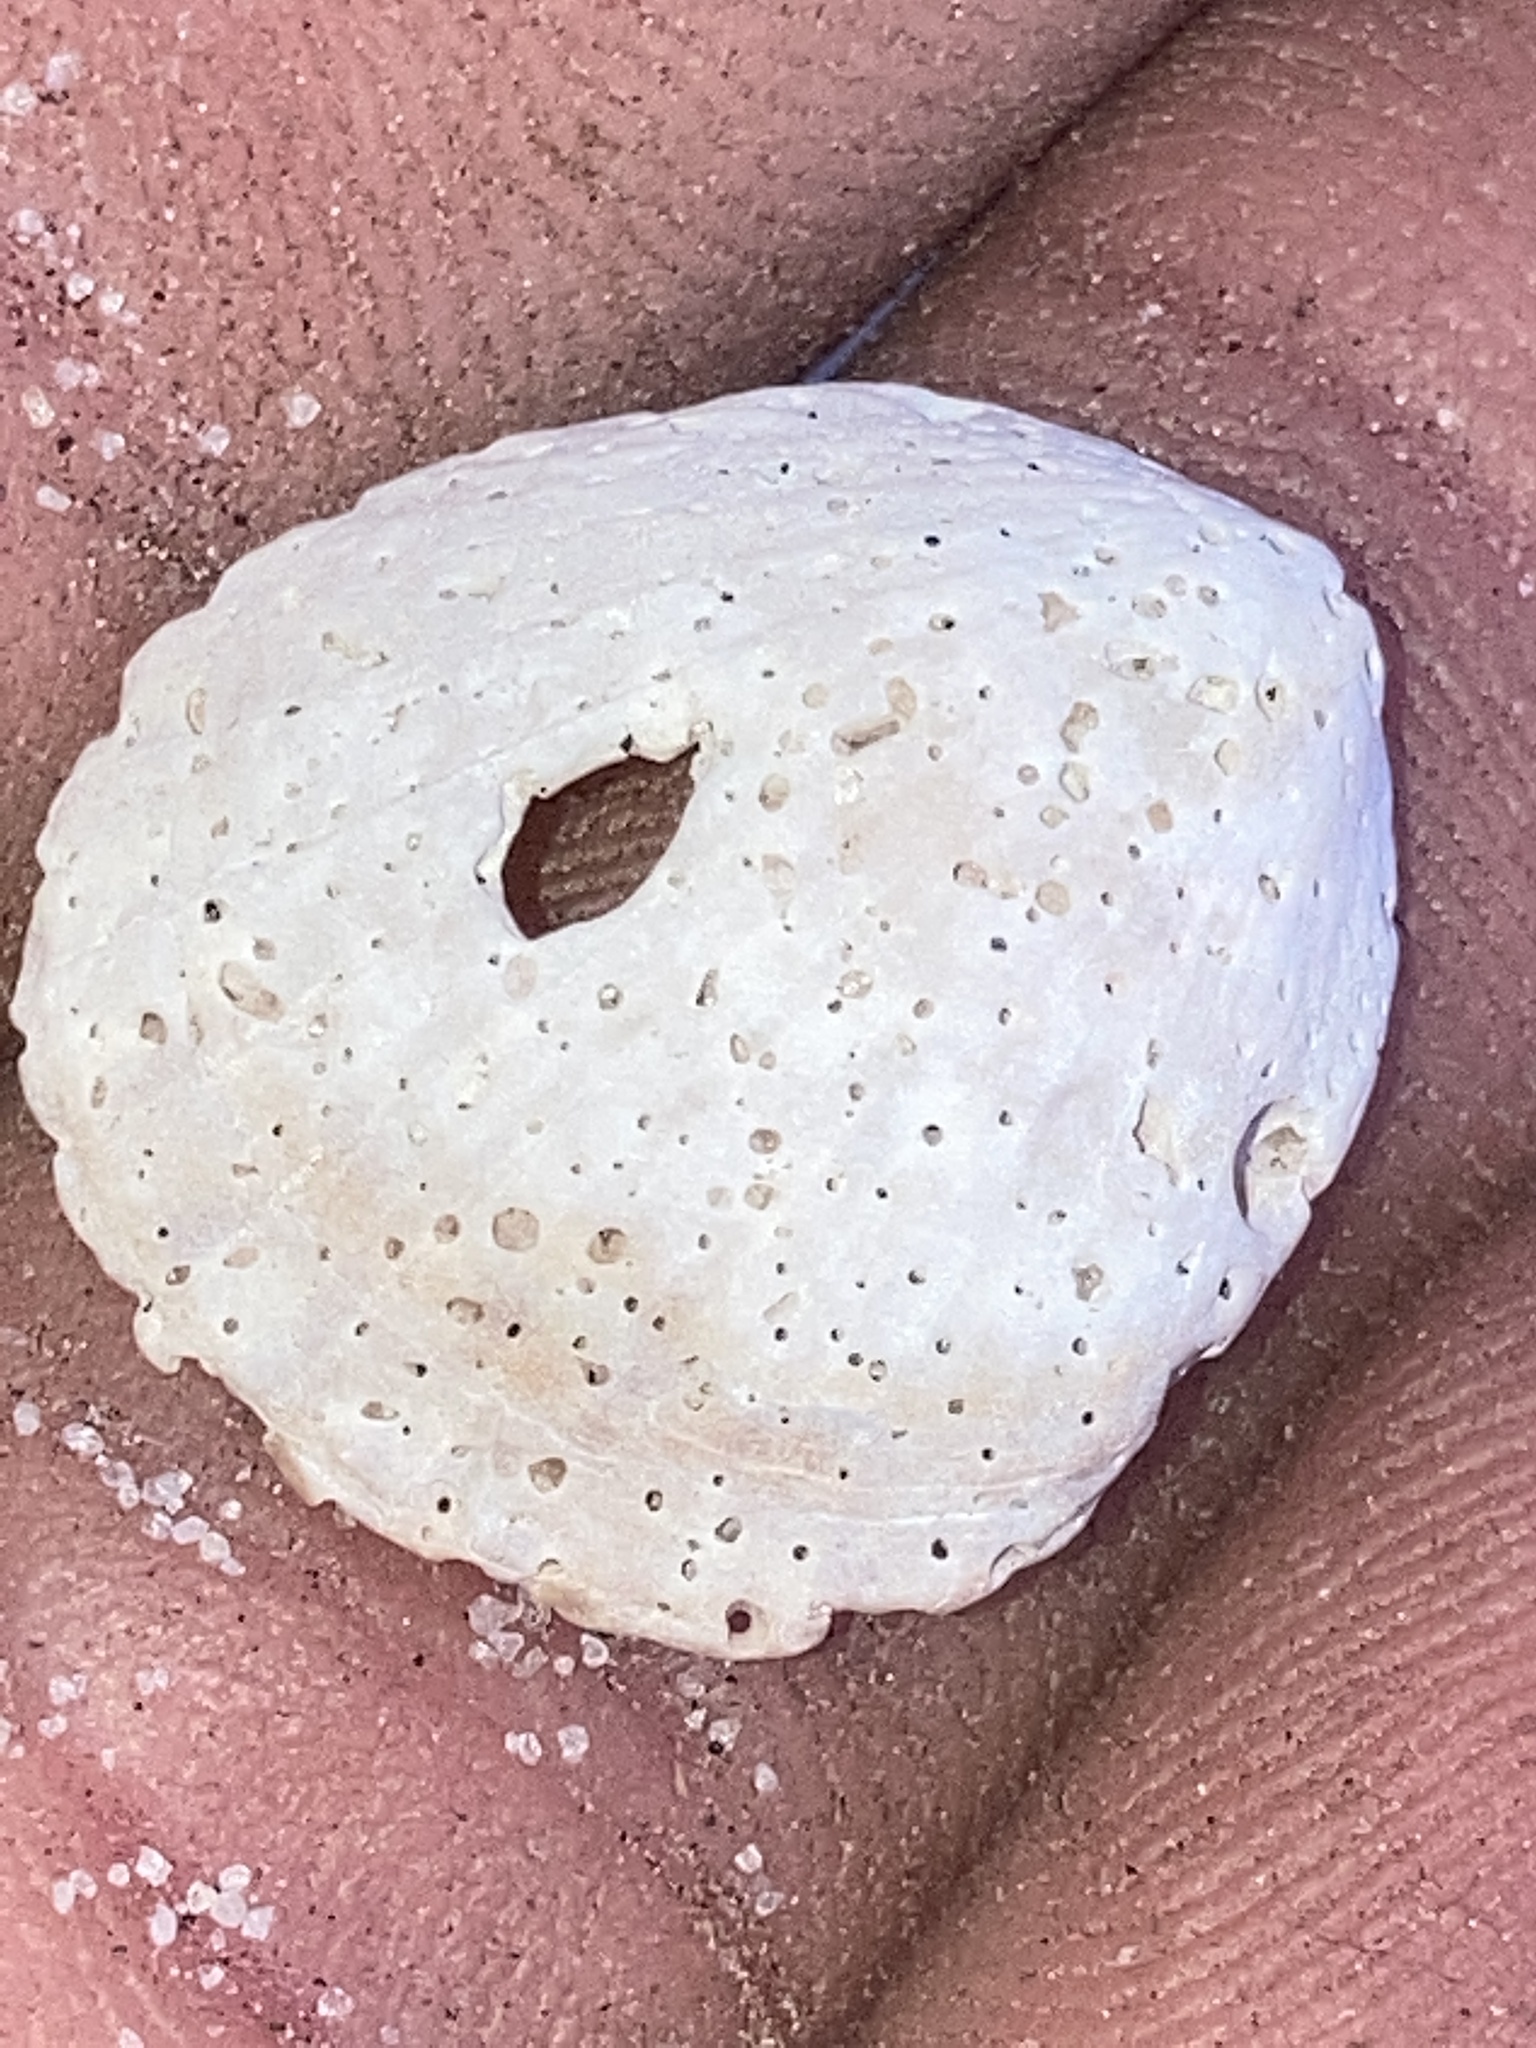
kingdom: Animalia
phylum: Mollusca
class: Bivalvia
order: Arcida
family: Glycymerididae
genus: Tucetona
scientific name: Tucetona pectinata
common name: Comb bittersweet
